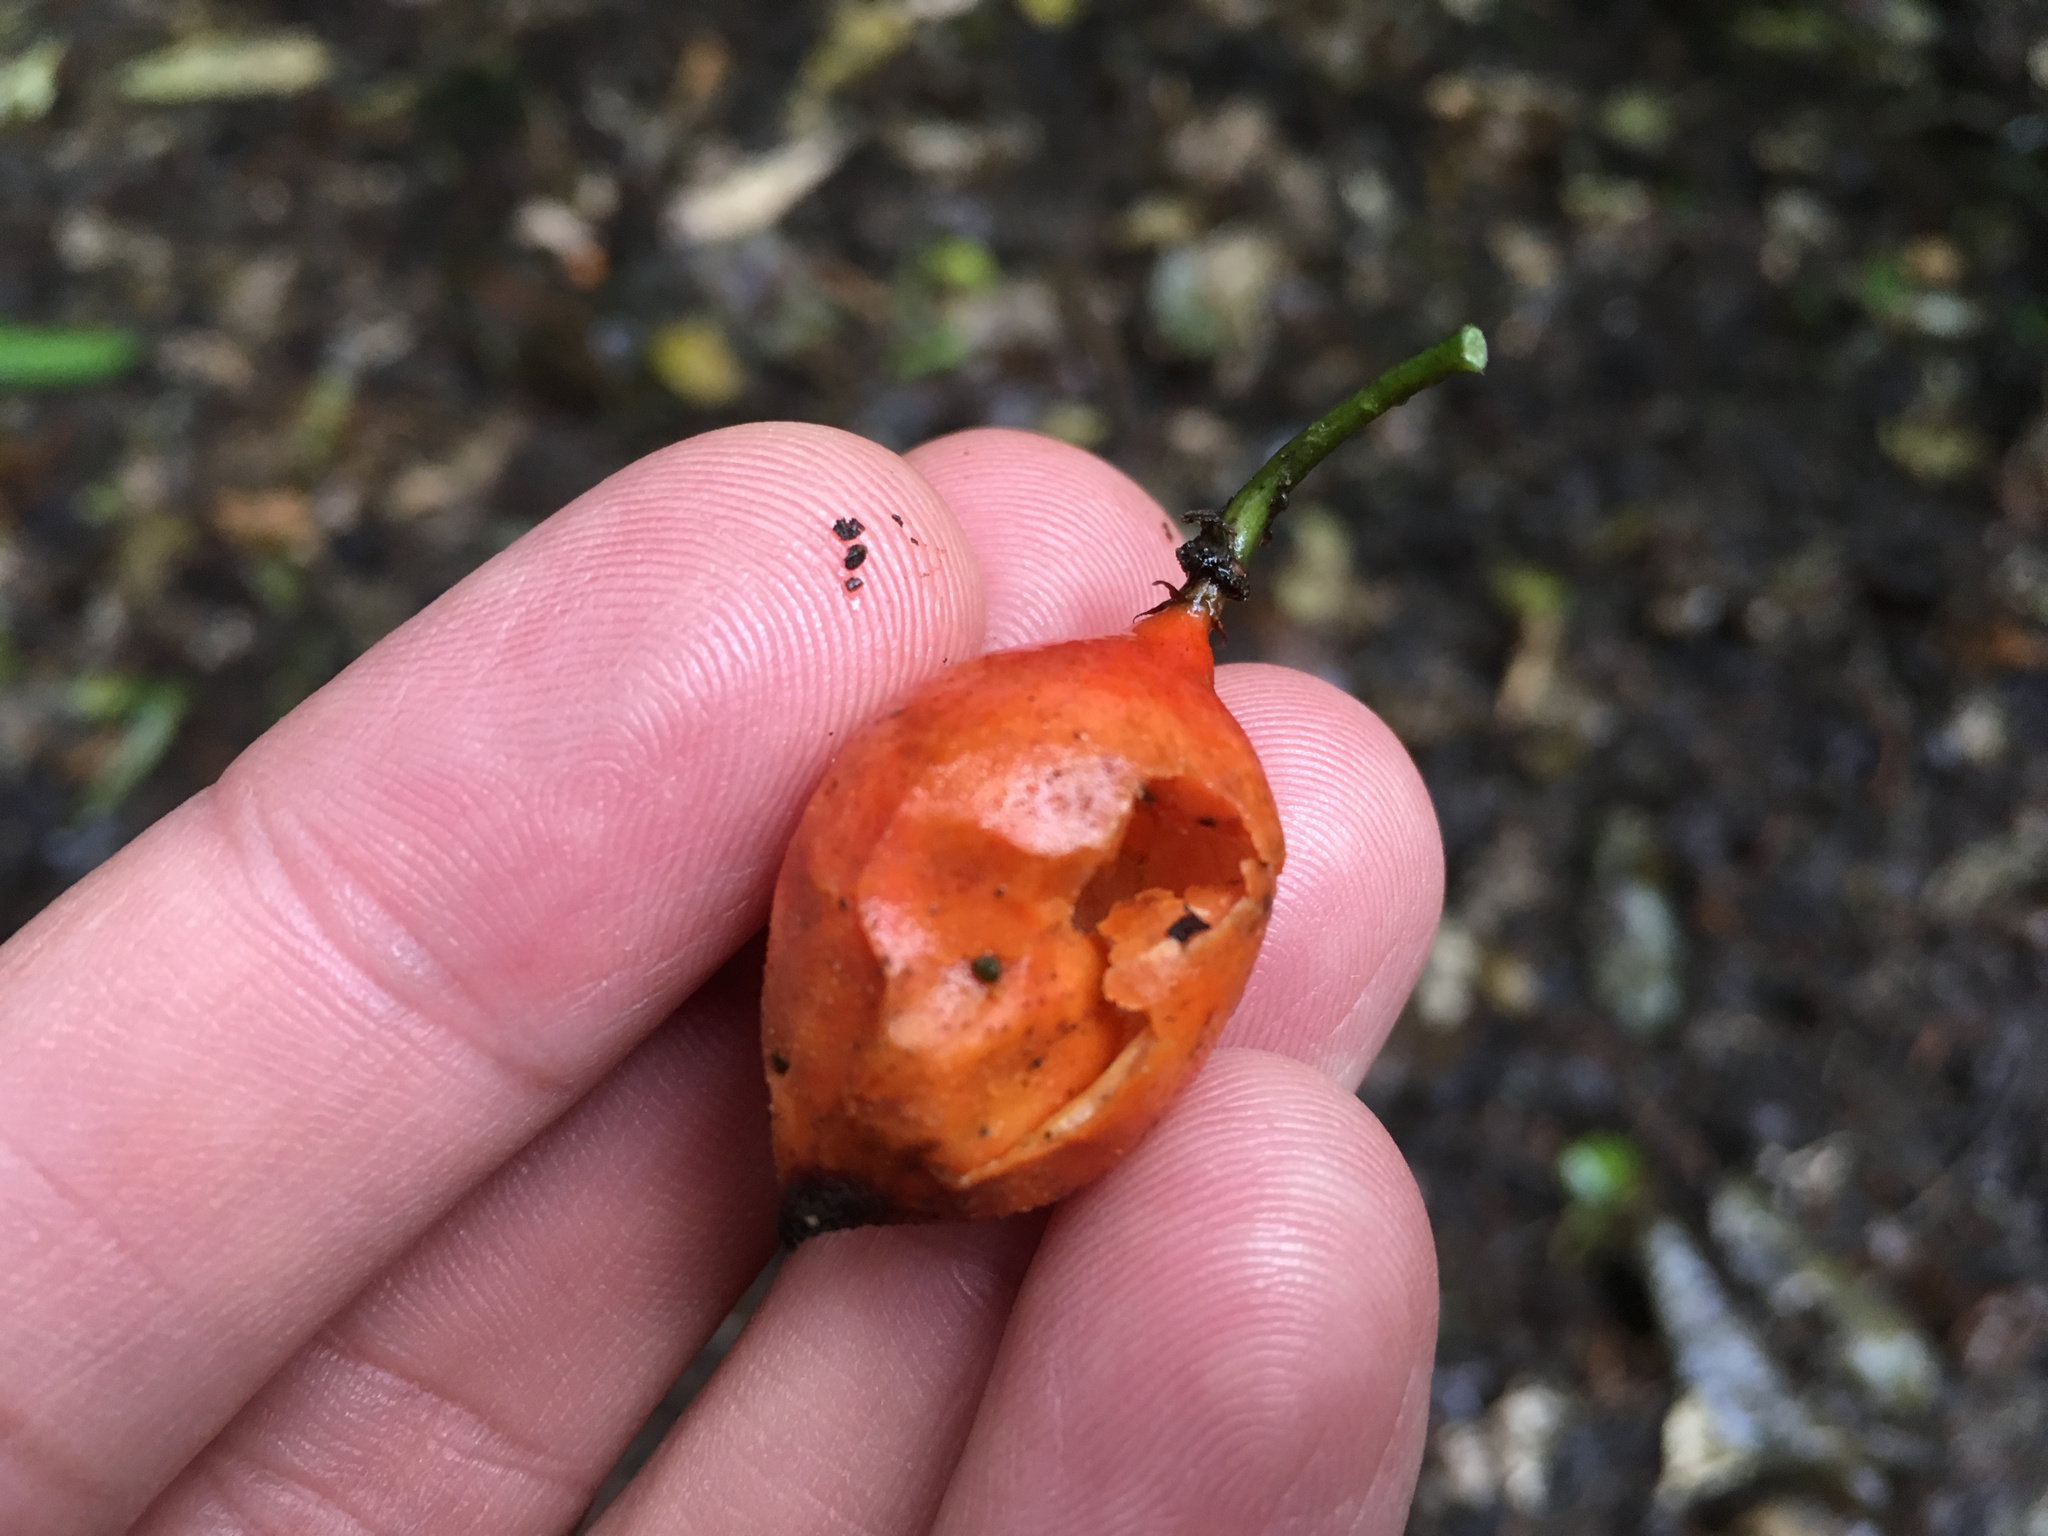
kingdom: Plantae
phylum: Tracheophyta
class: Magnoliopsida
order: Malpighiales
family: Passifloraceae
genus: Passiflora
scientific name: Passiflora tetrandra
